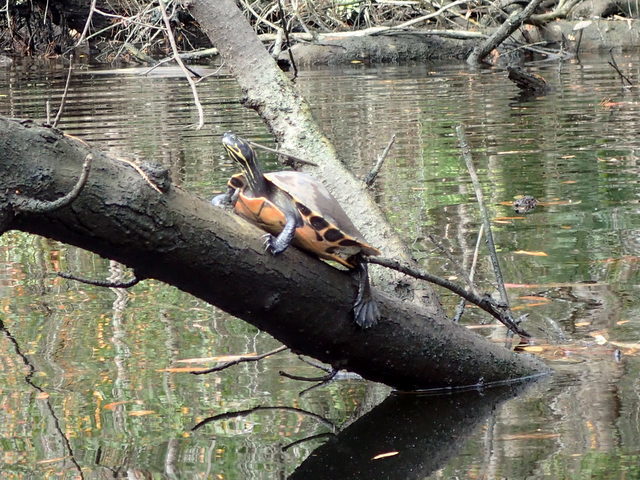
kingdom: Animalia
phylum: Chordata
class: Testudines
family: Emydidae
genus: Pseudemys
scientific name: Pseudemys concinna
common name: Eastern river cooter
